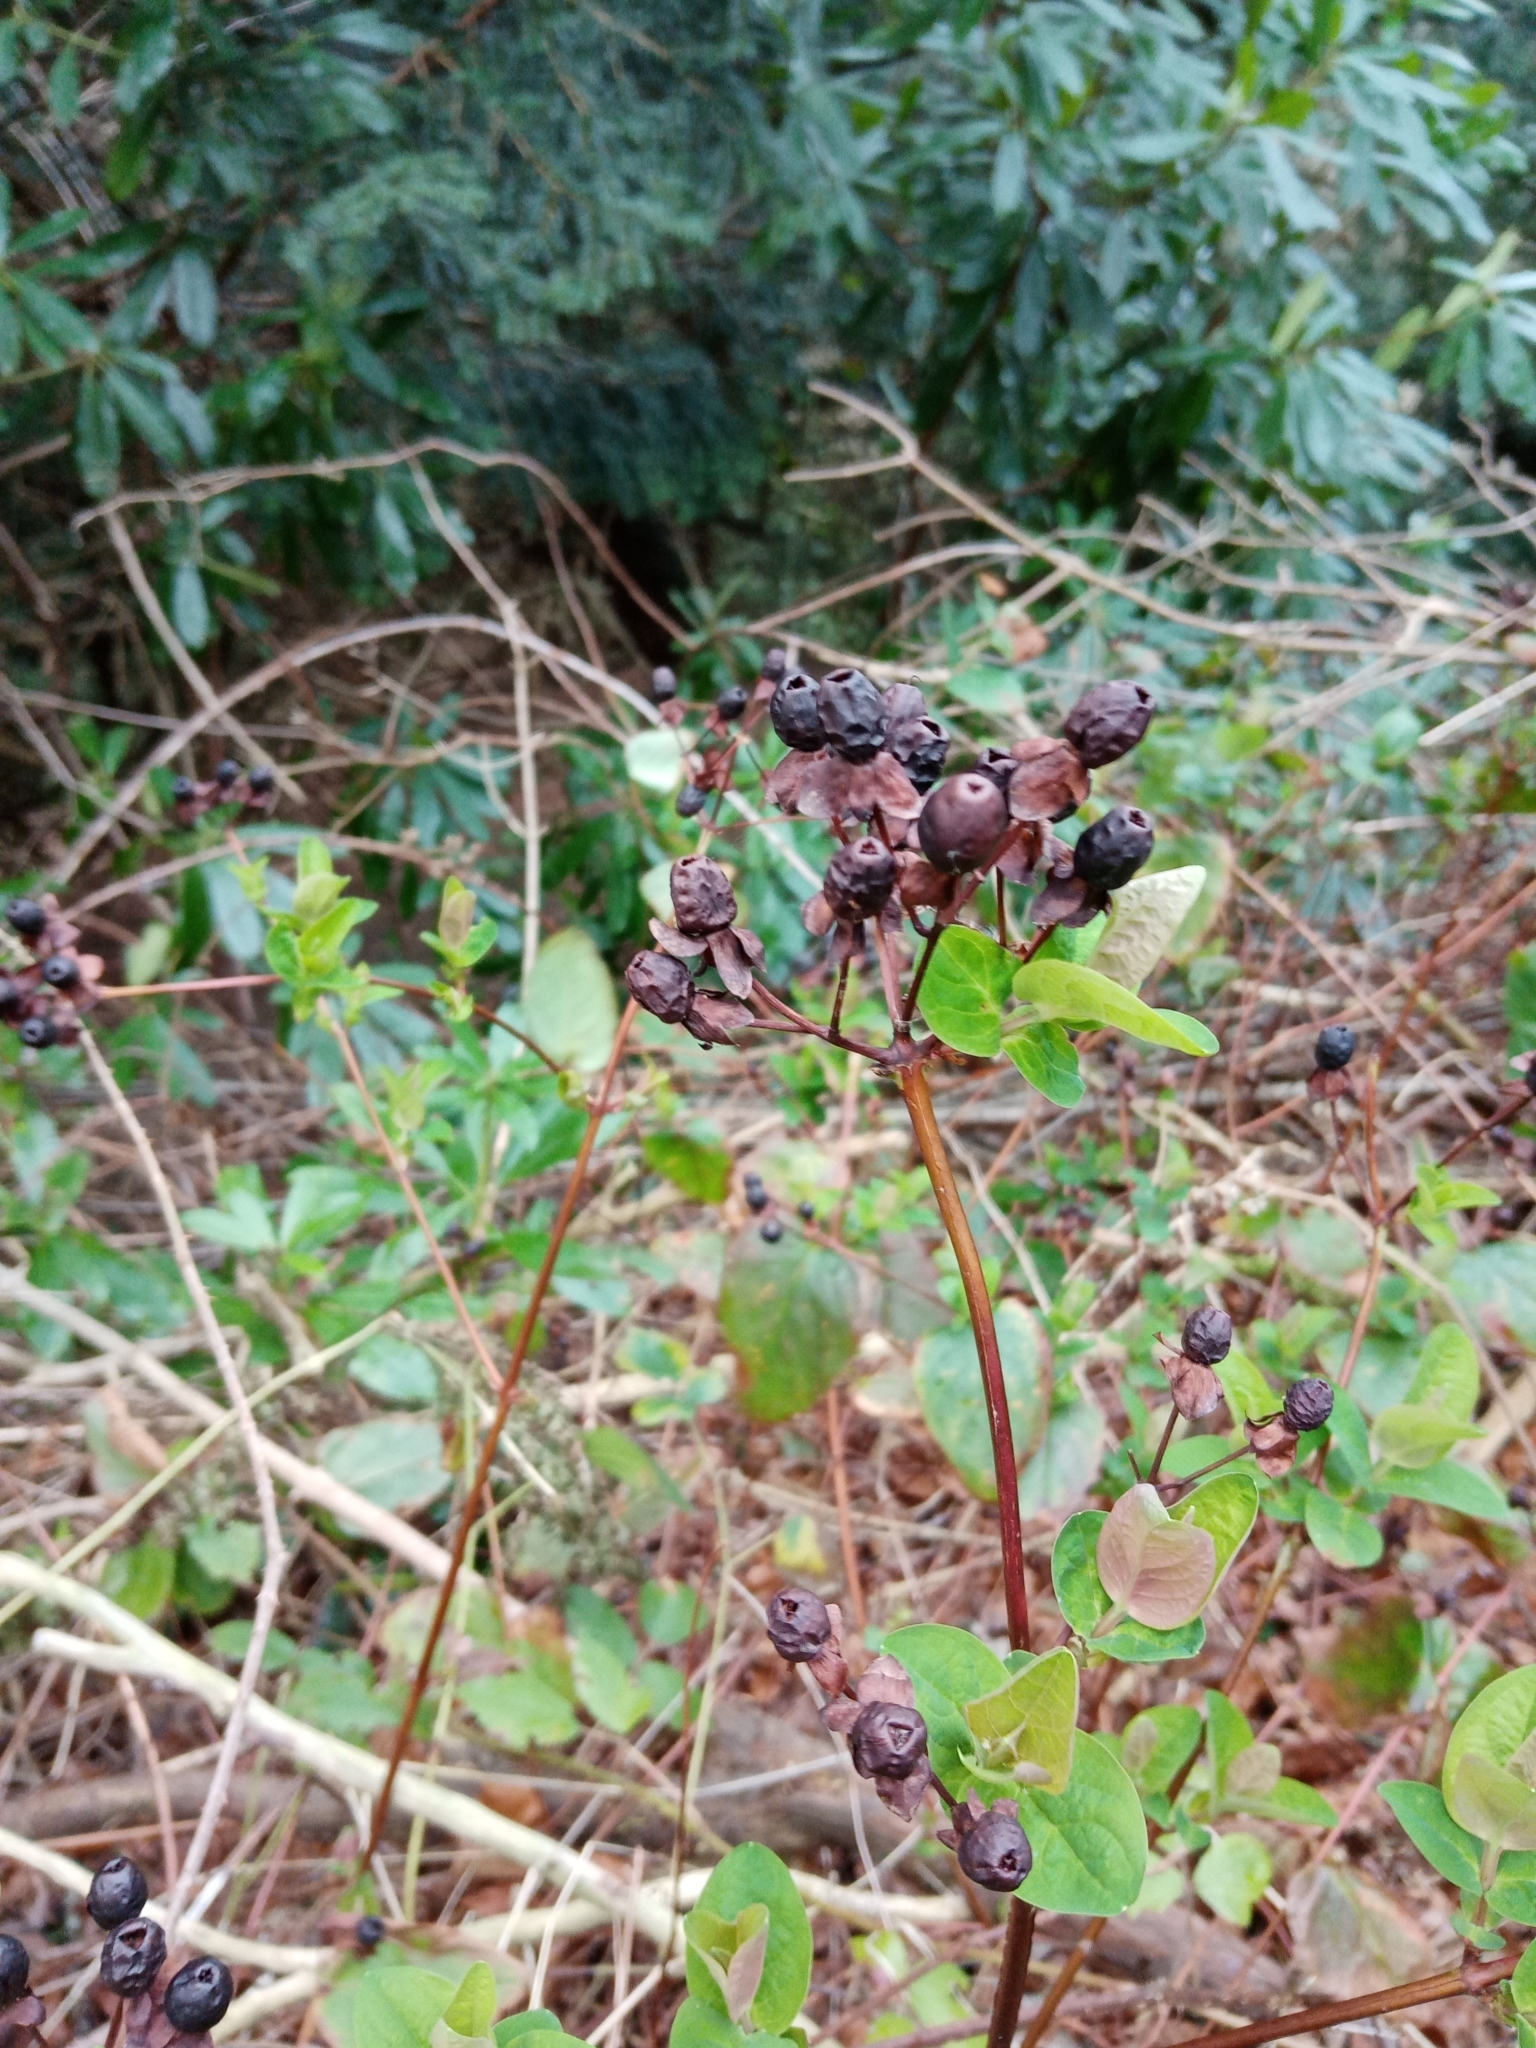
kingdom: Plantae
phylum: Tracheophyta
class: Magnoliopsida
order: Malpighiales
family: Hypericaceae
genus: Hypericum
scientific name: Hypericum androsaemum
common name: Sweet-amber
